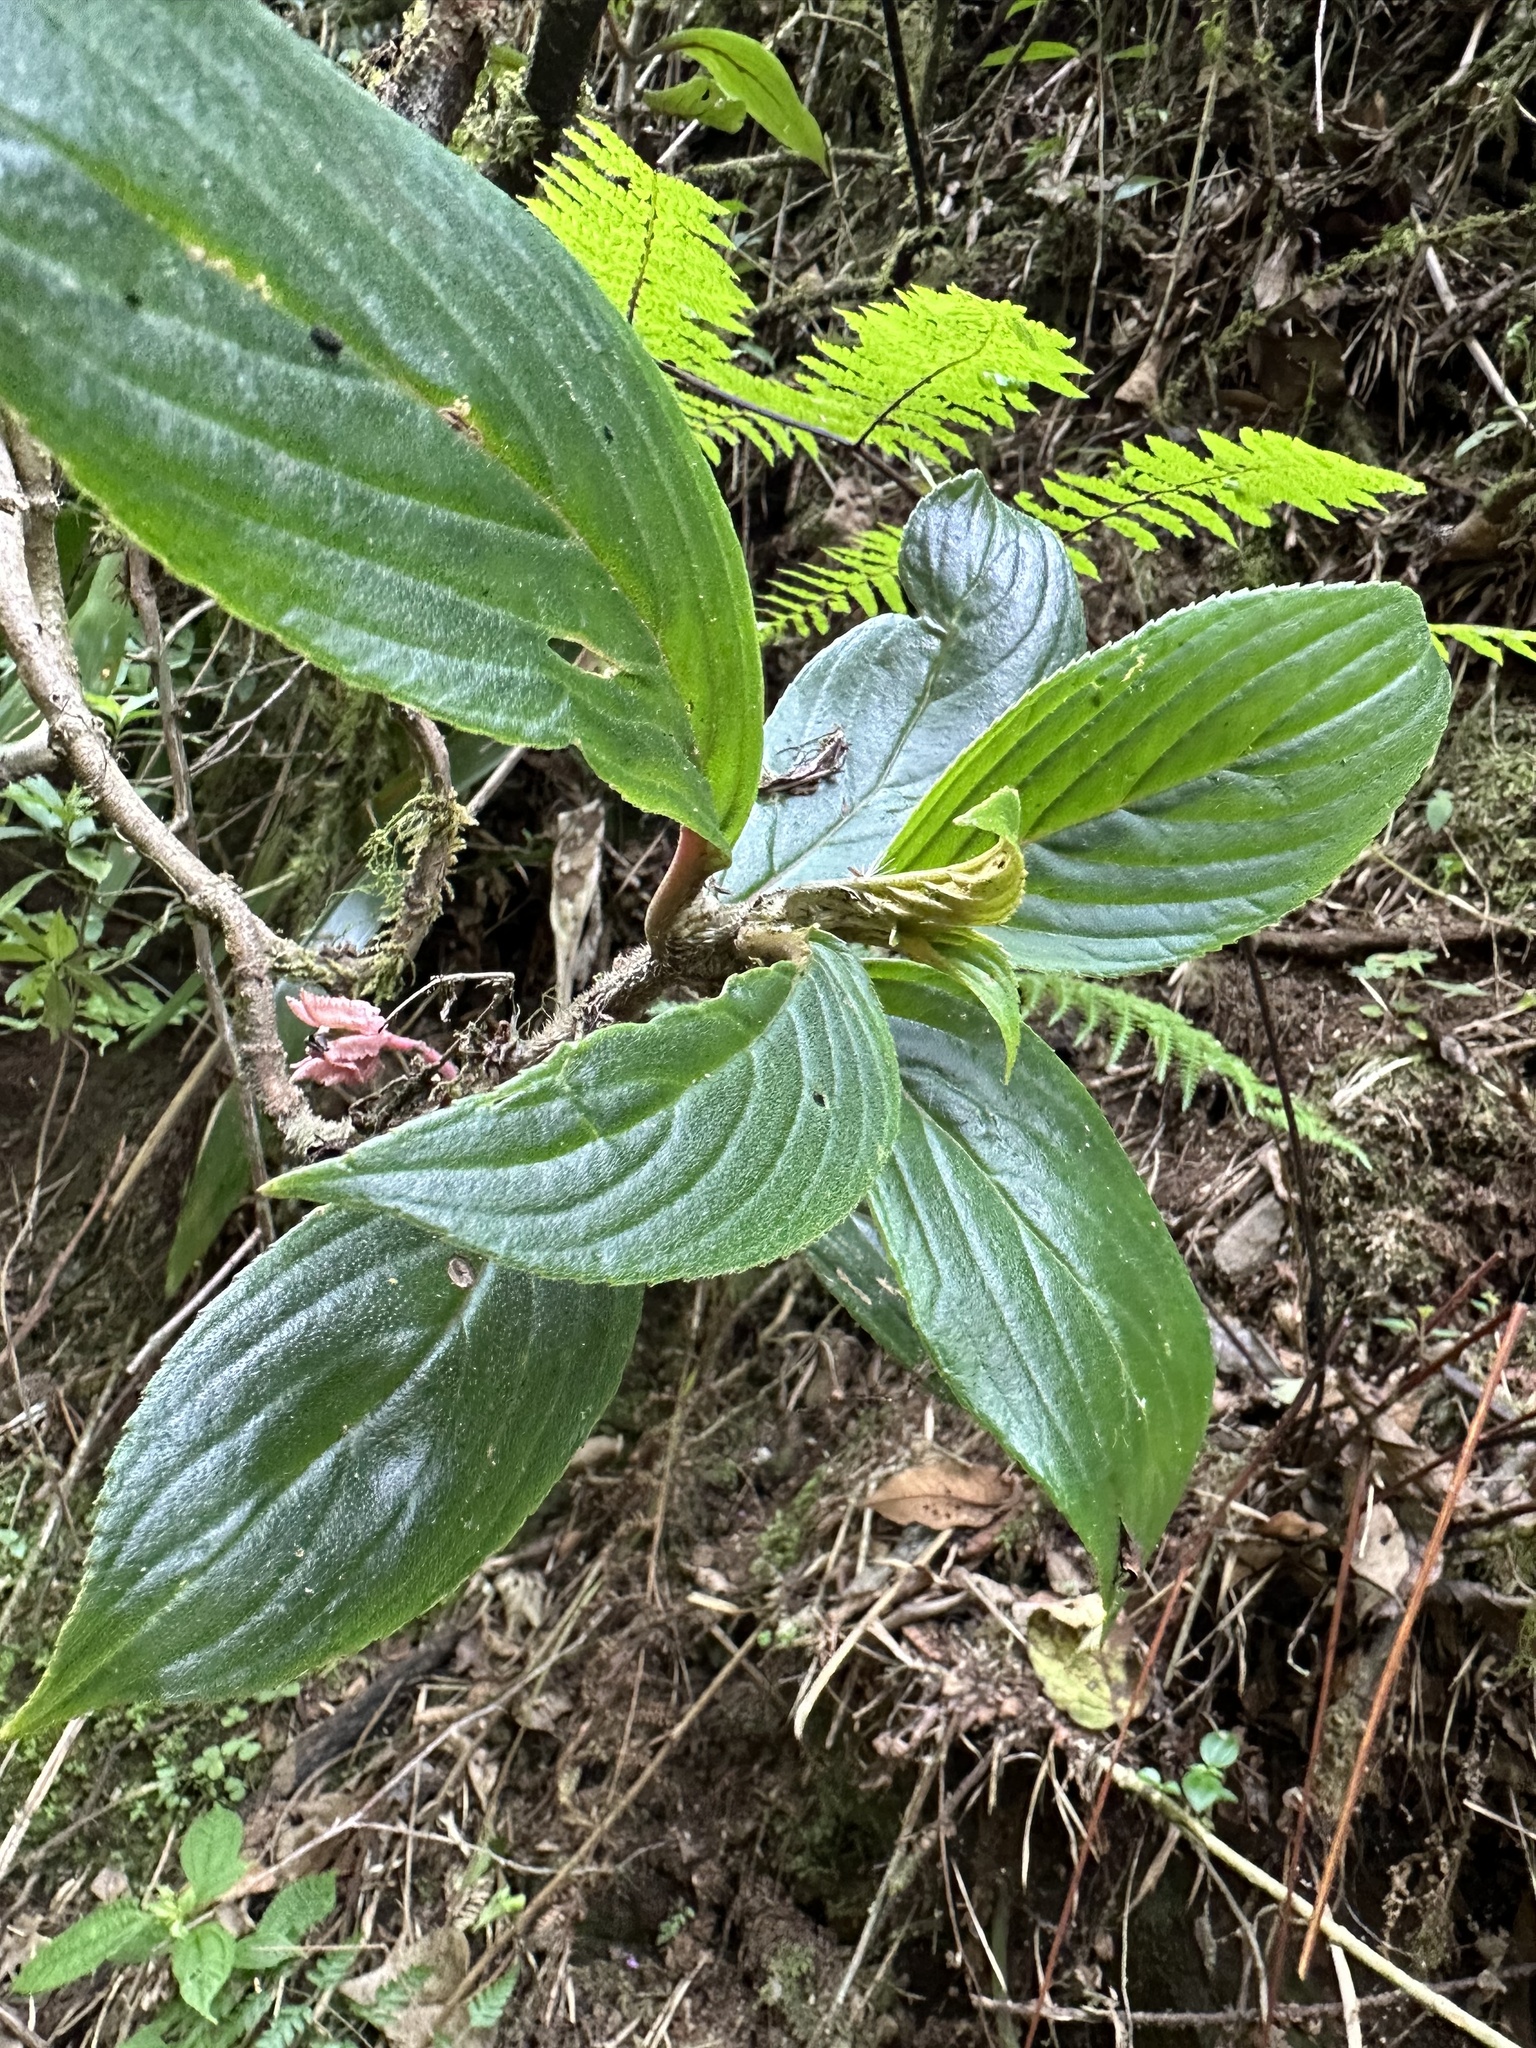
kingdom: Plantae
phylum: Tracheophyta
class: Magnoliopsida
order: Lamiales
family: Gesneriaceae
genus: Columnea
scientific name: Columnea strigosa
